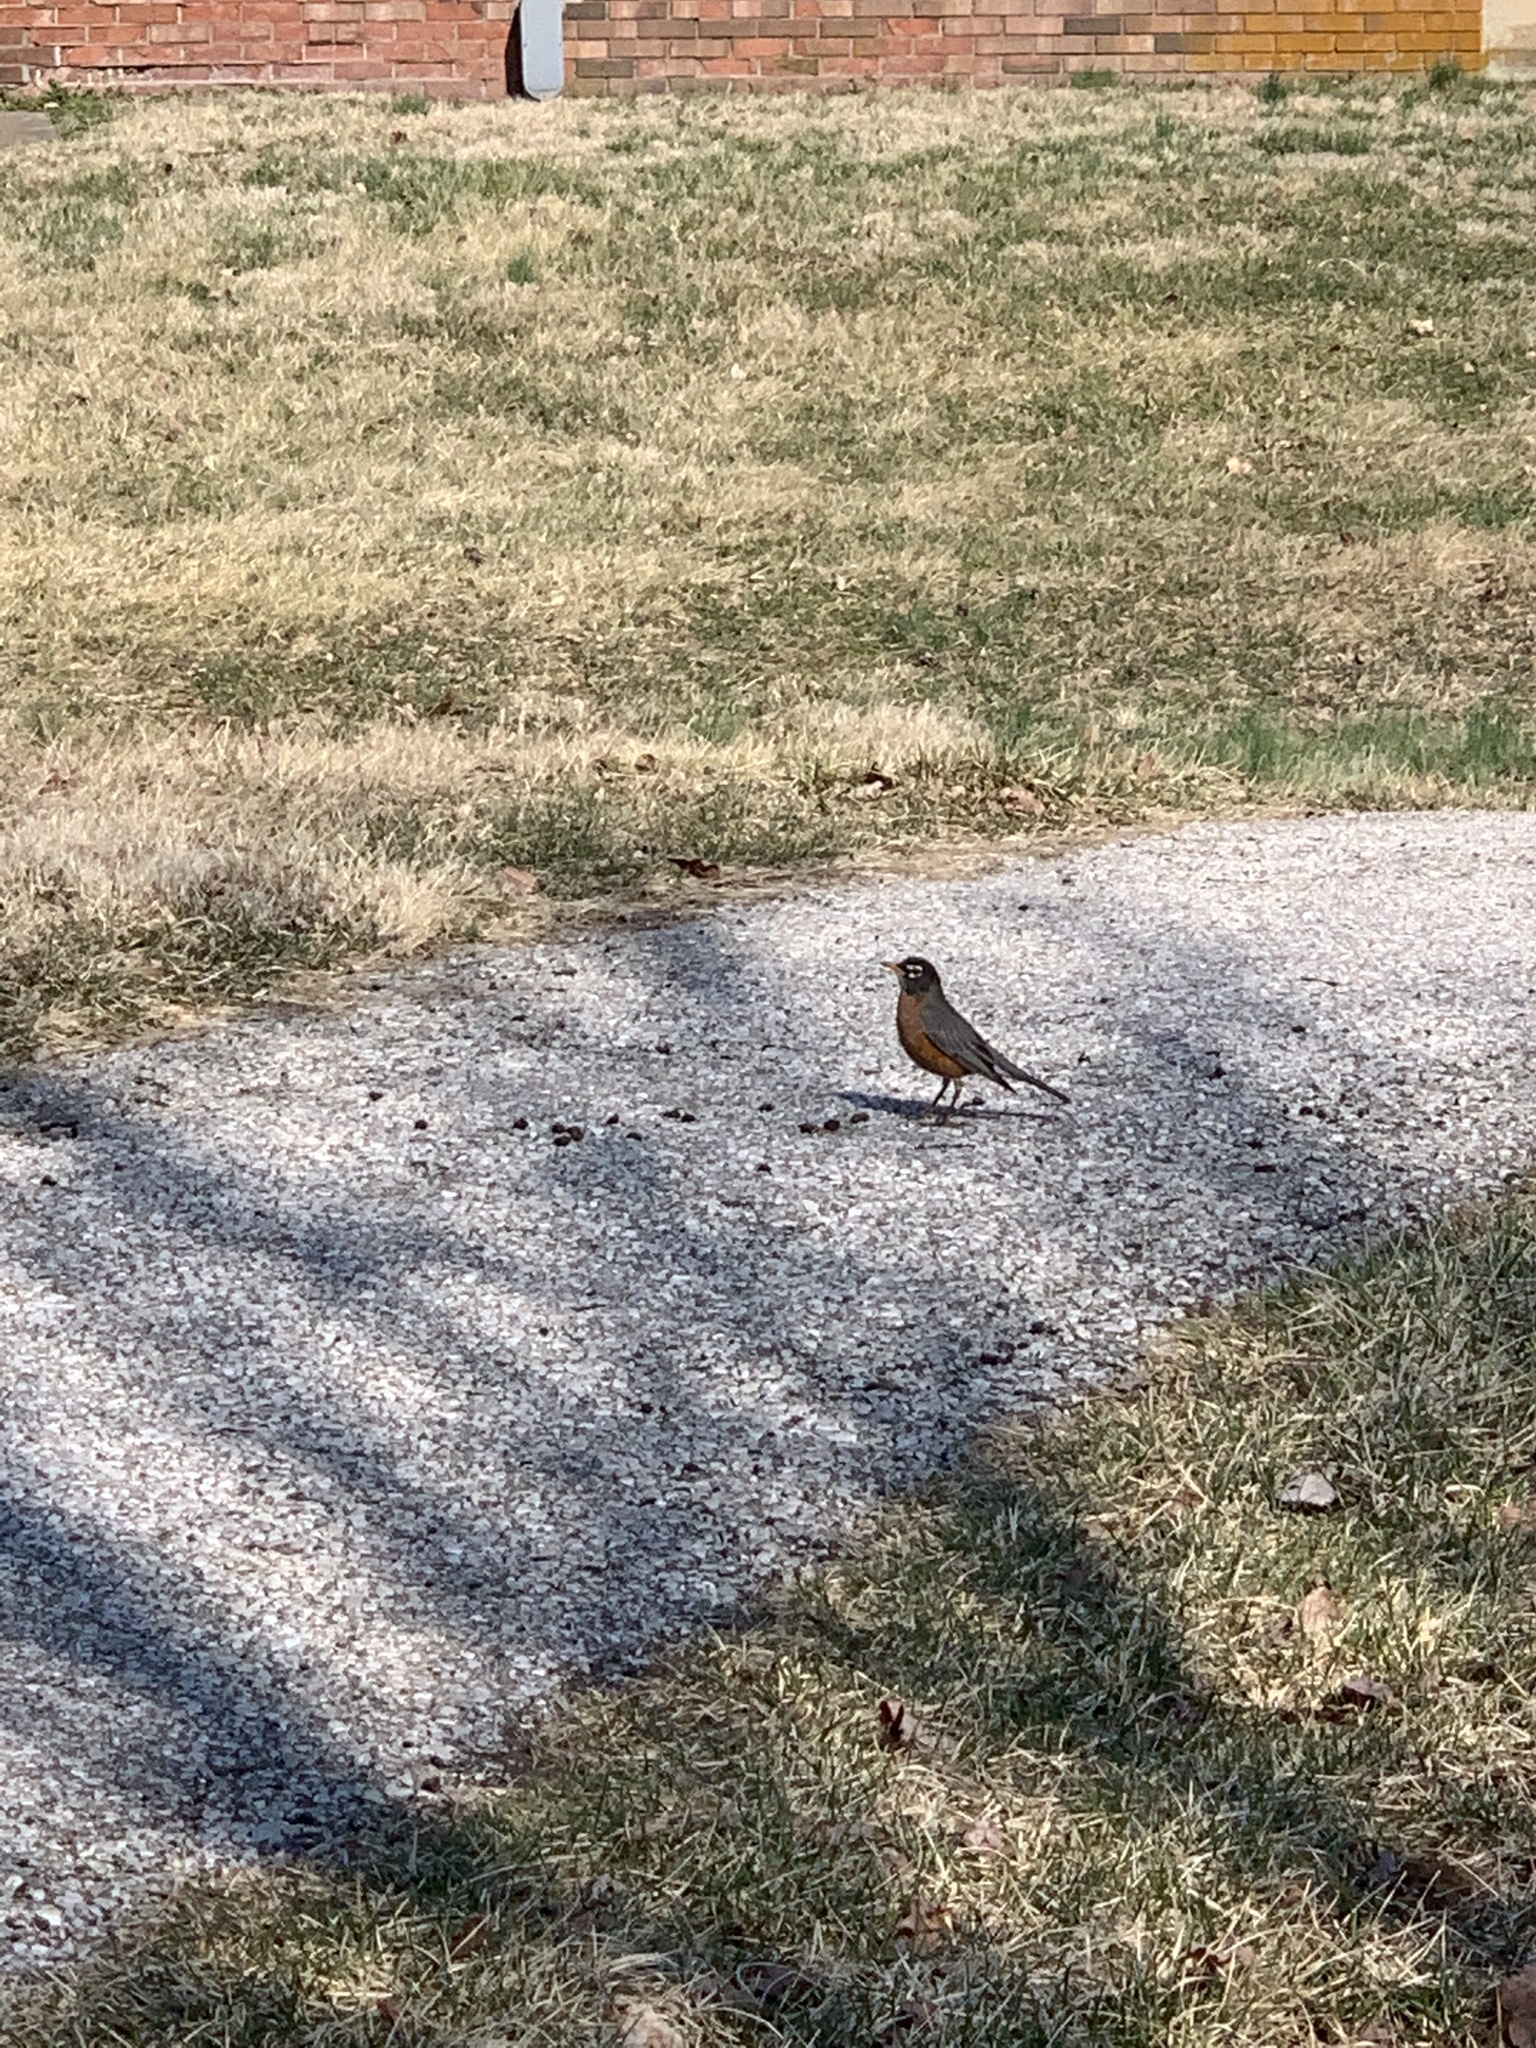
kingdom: Animalia
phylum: Chordata
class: Aves
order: Passeriformes
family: Turdidae
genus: Turdus
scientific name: Turdus migratorius
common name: American robin
